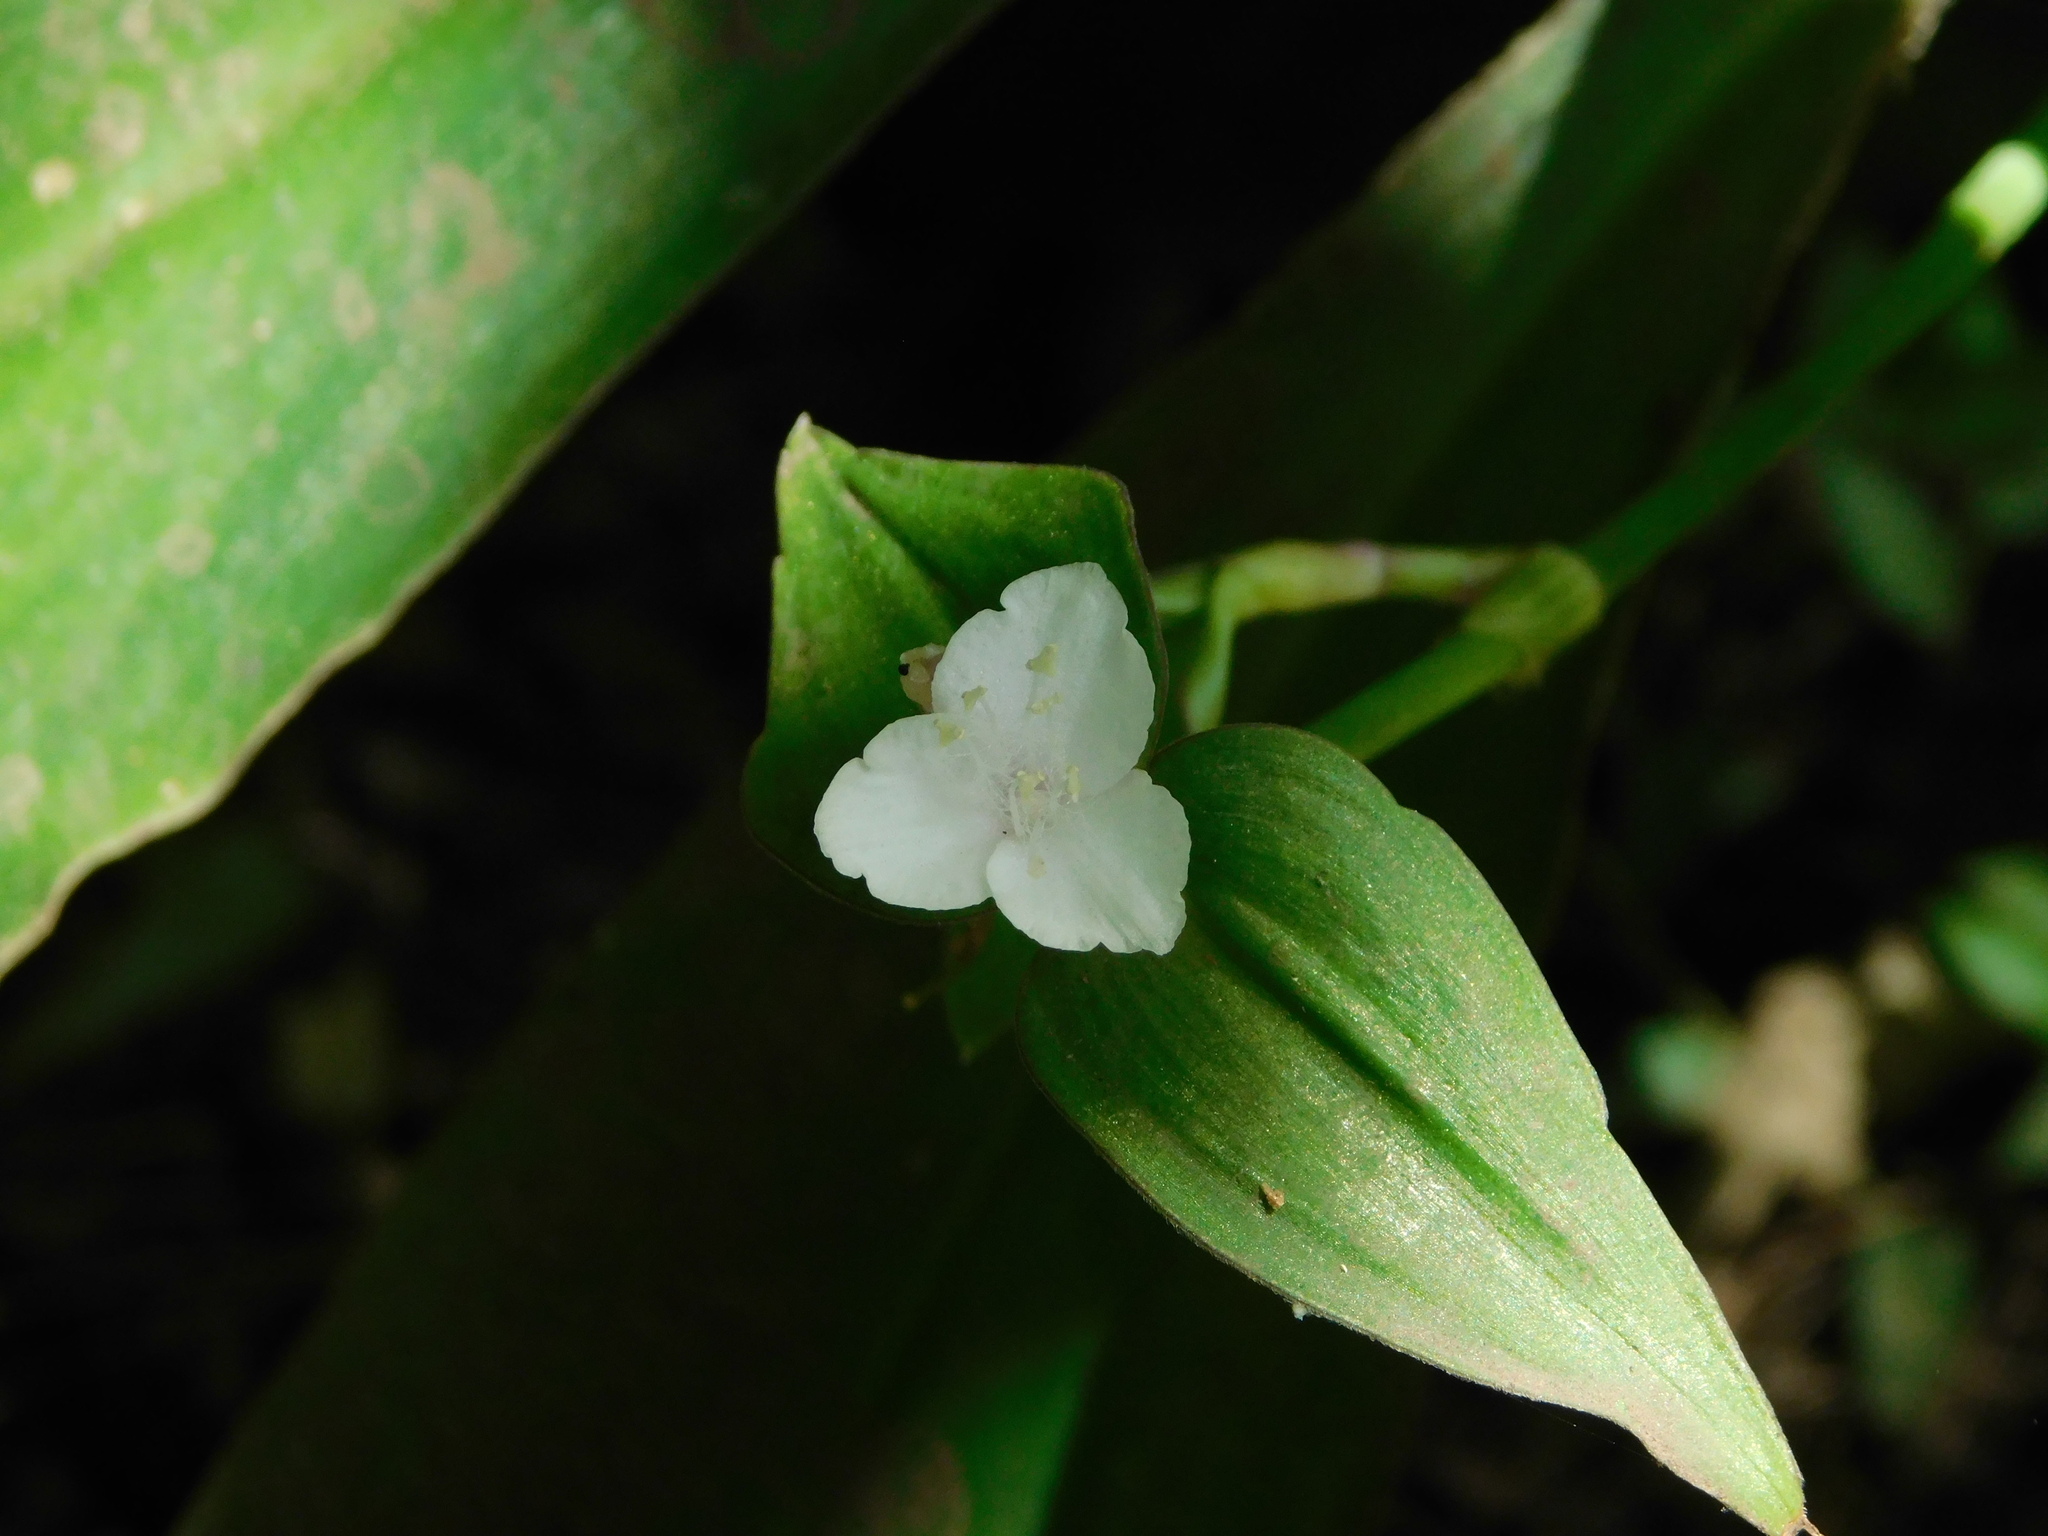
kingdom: Plantae
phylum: Tracheophyta
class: Liliopsida
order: Commelinales
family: Commelinaceae
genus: Tradescantia
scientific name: Tradescantia zanonia
